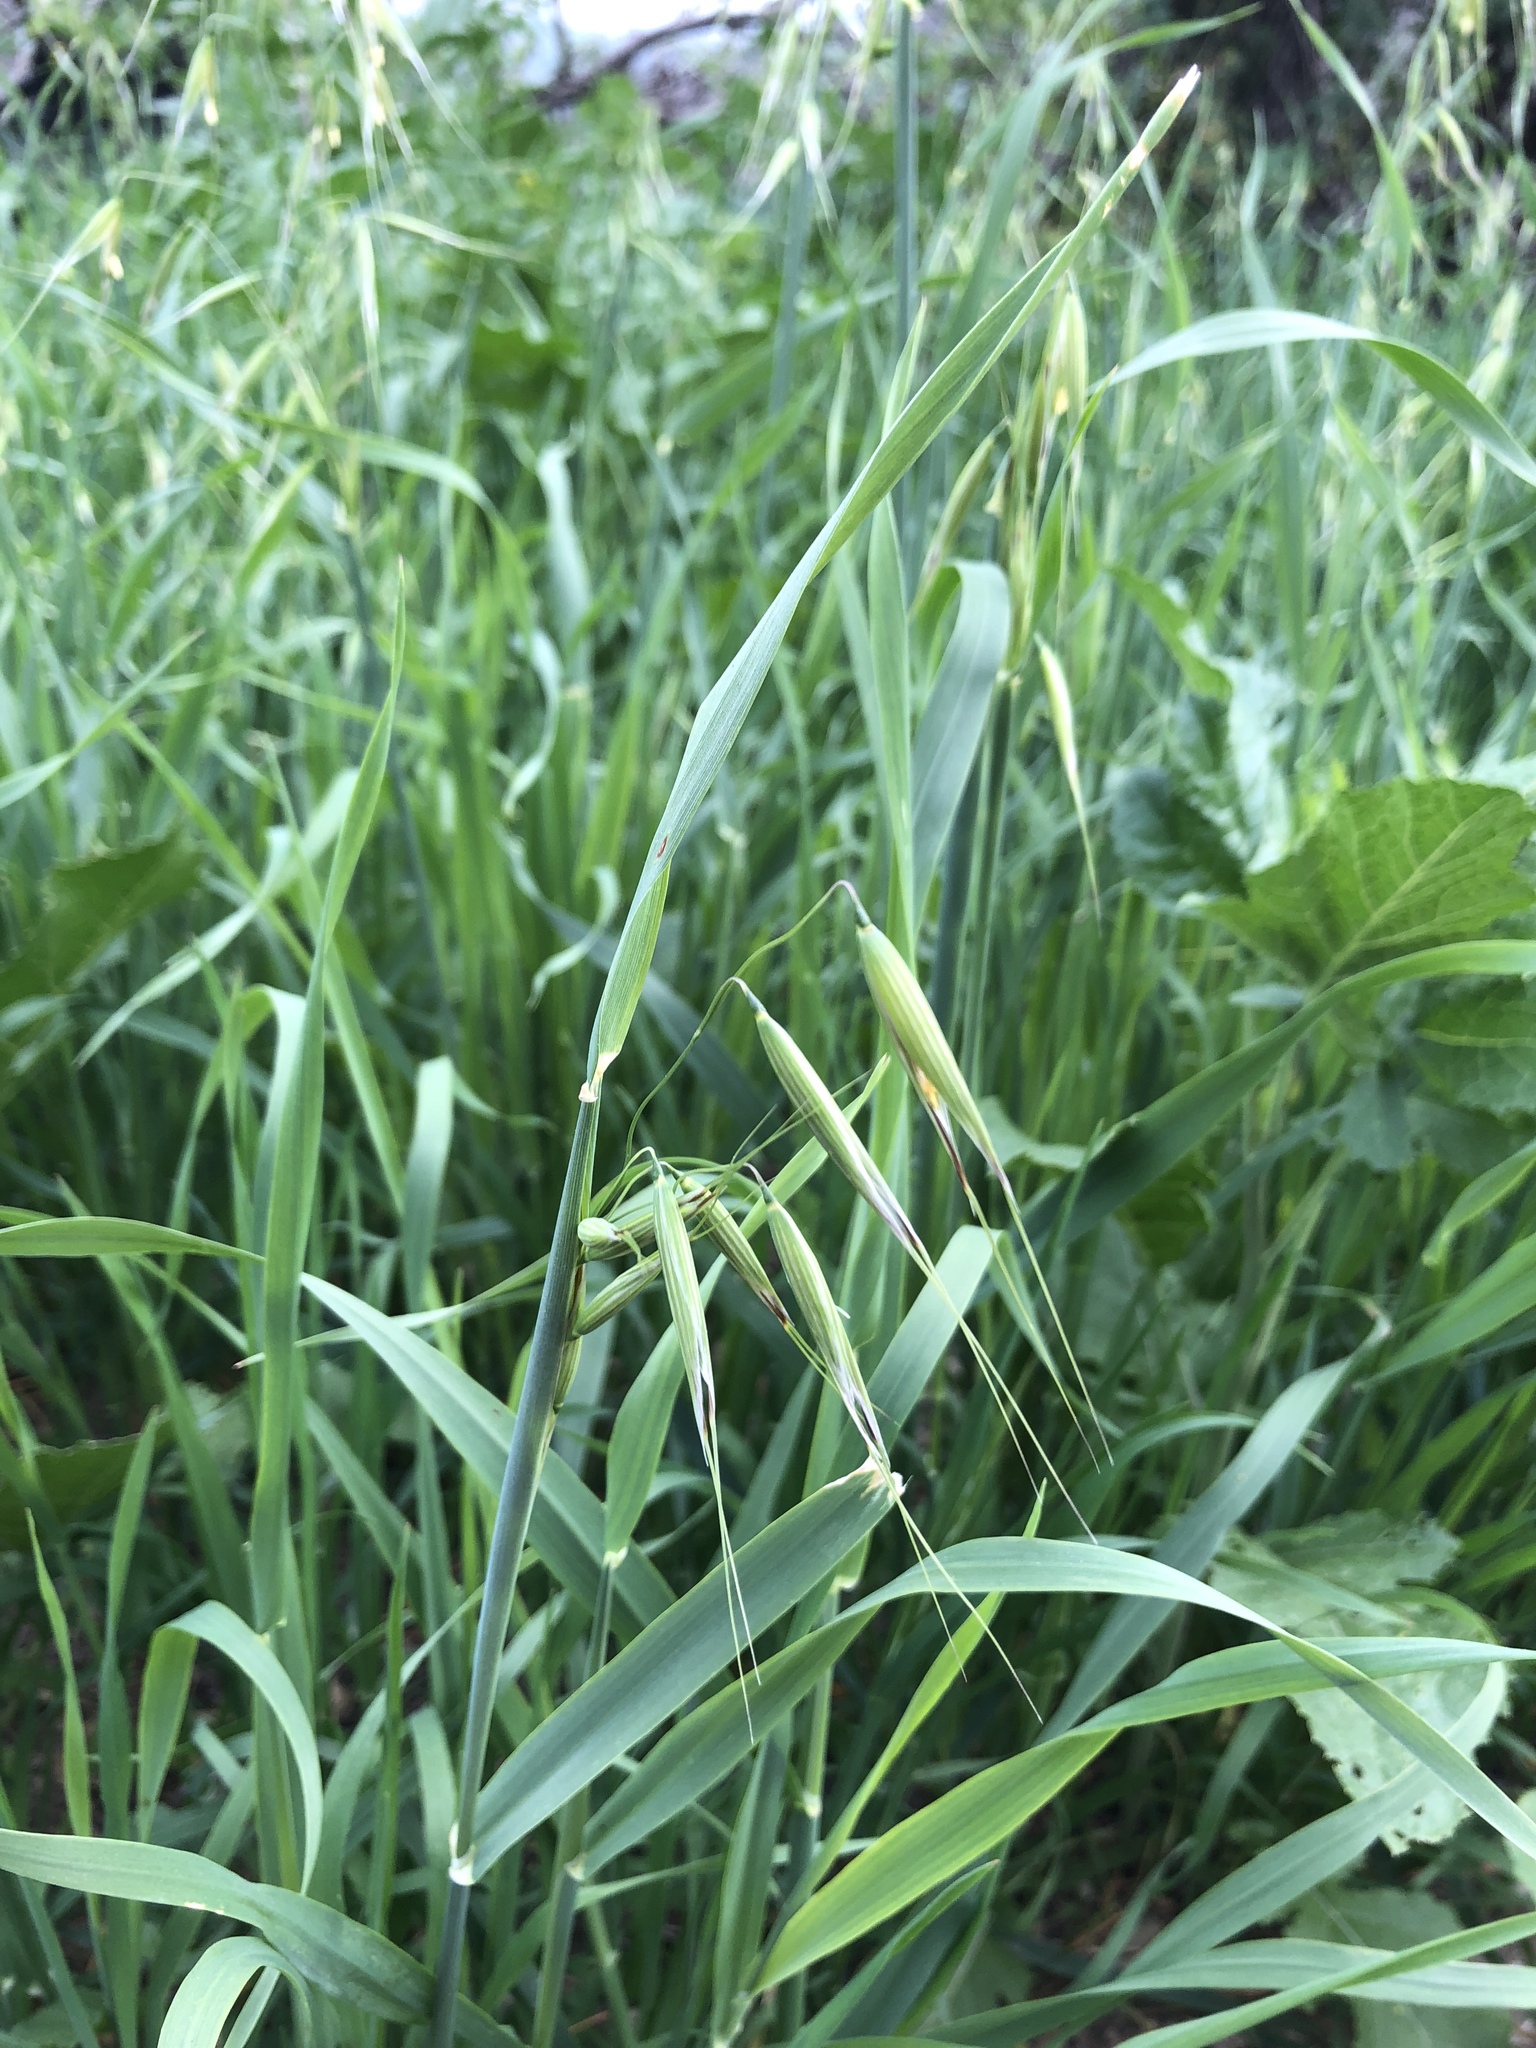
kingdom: Plantae
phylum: Tracheophyta
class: Liliopsida
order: Poales
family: Poaceae
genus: Avena
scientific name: Avena fatua
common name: Wild oat
